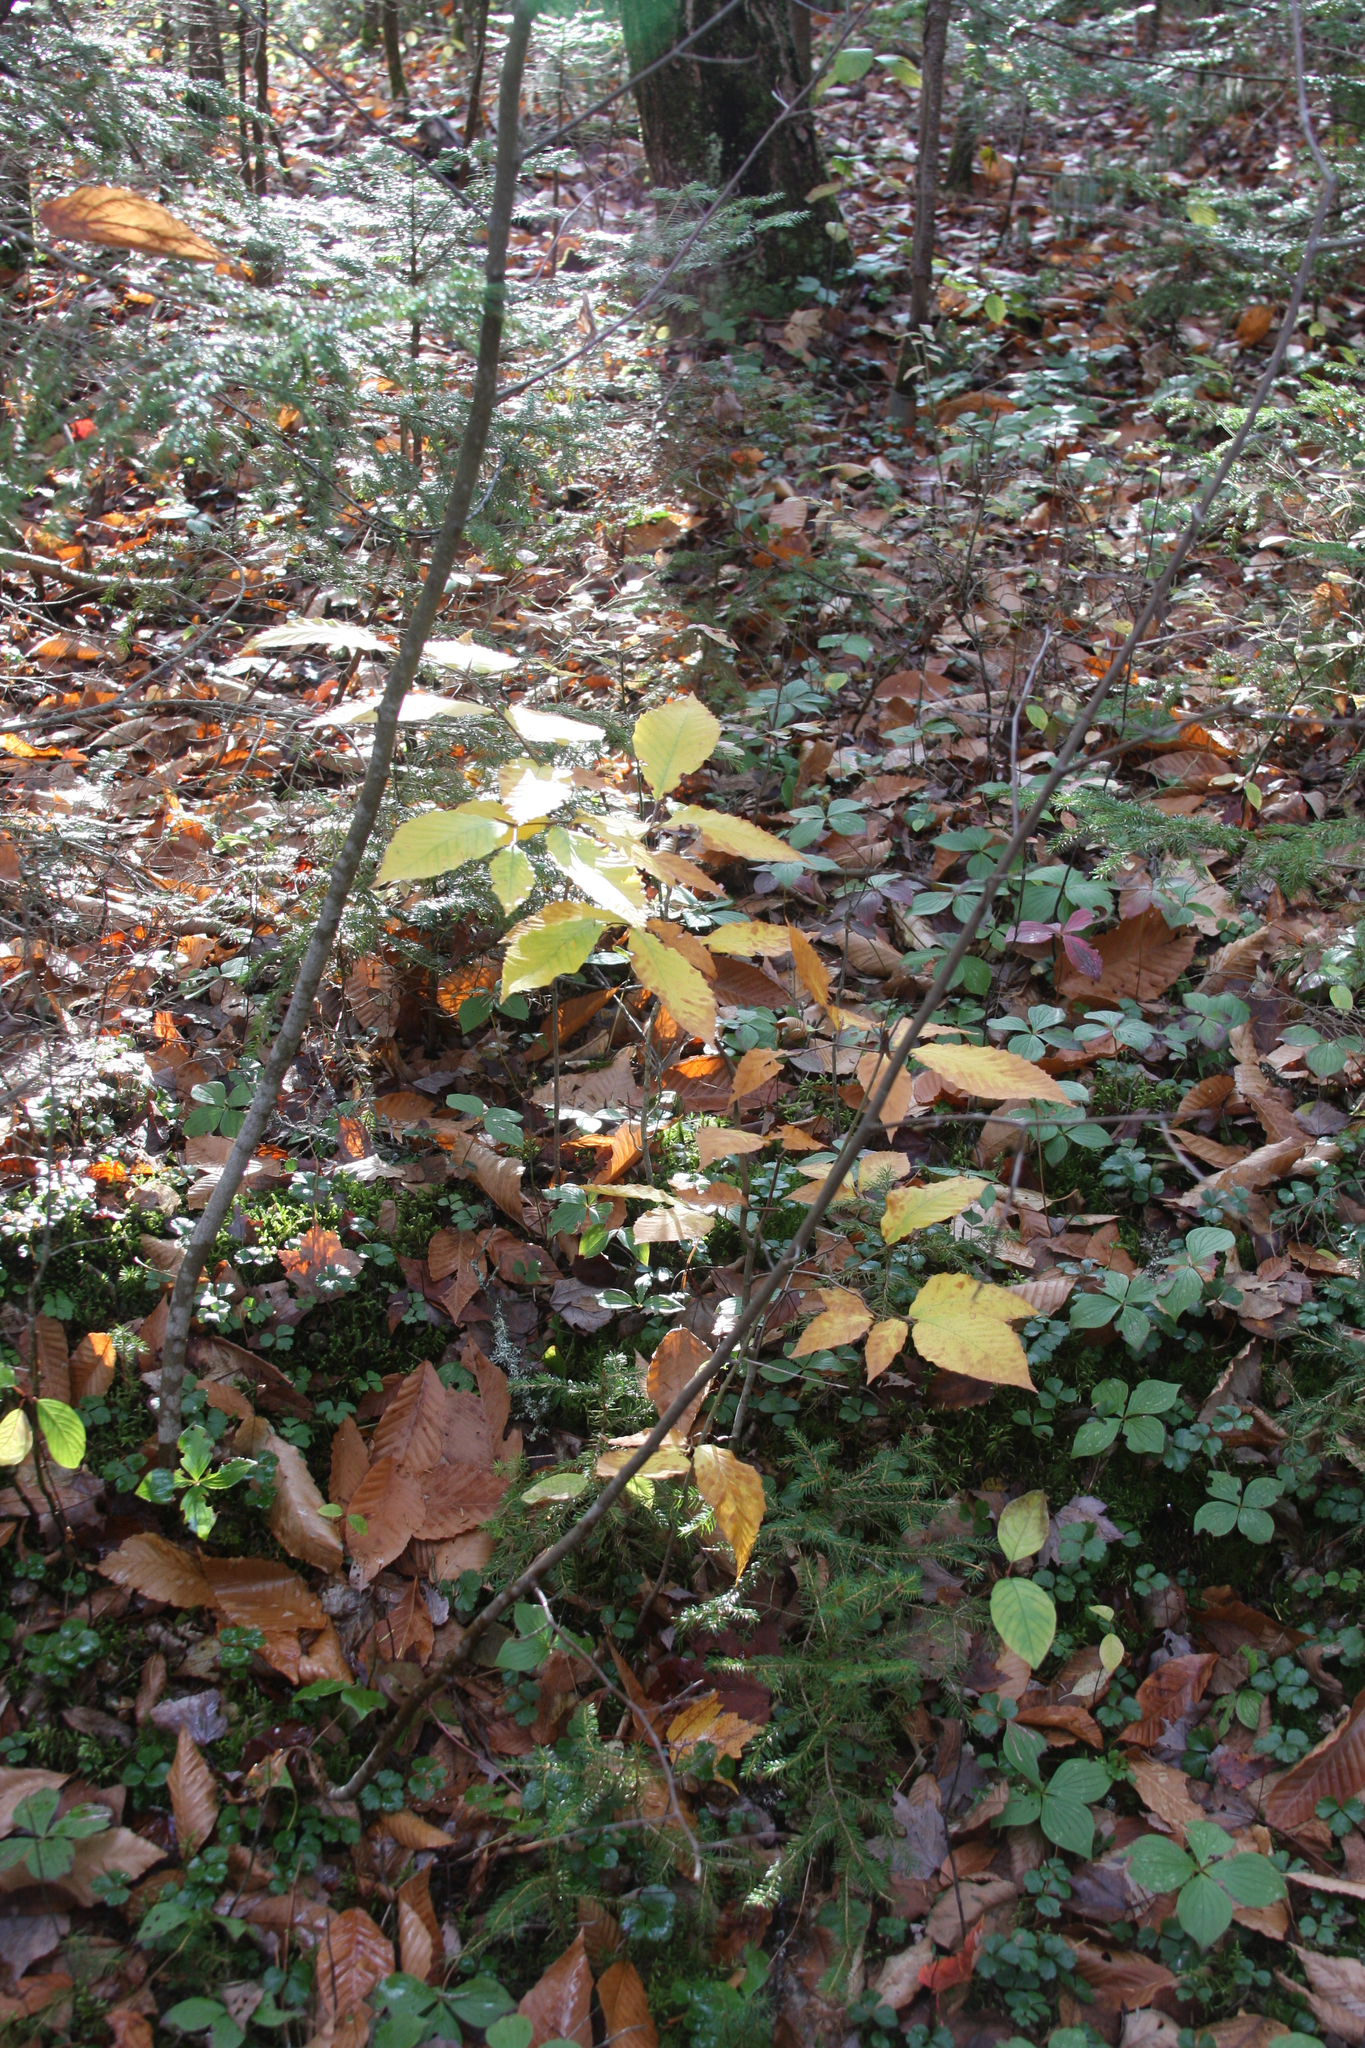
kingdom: Plantae
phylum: Tracheophyta
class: Magnoliopsida
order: Fagales
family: Fagaceae
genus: Fagus
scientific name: Fagus grandifolia
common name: American beech
